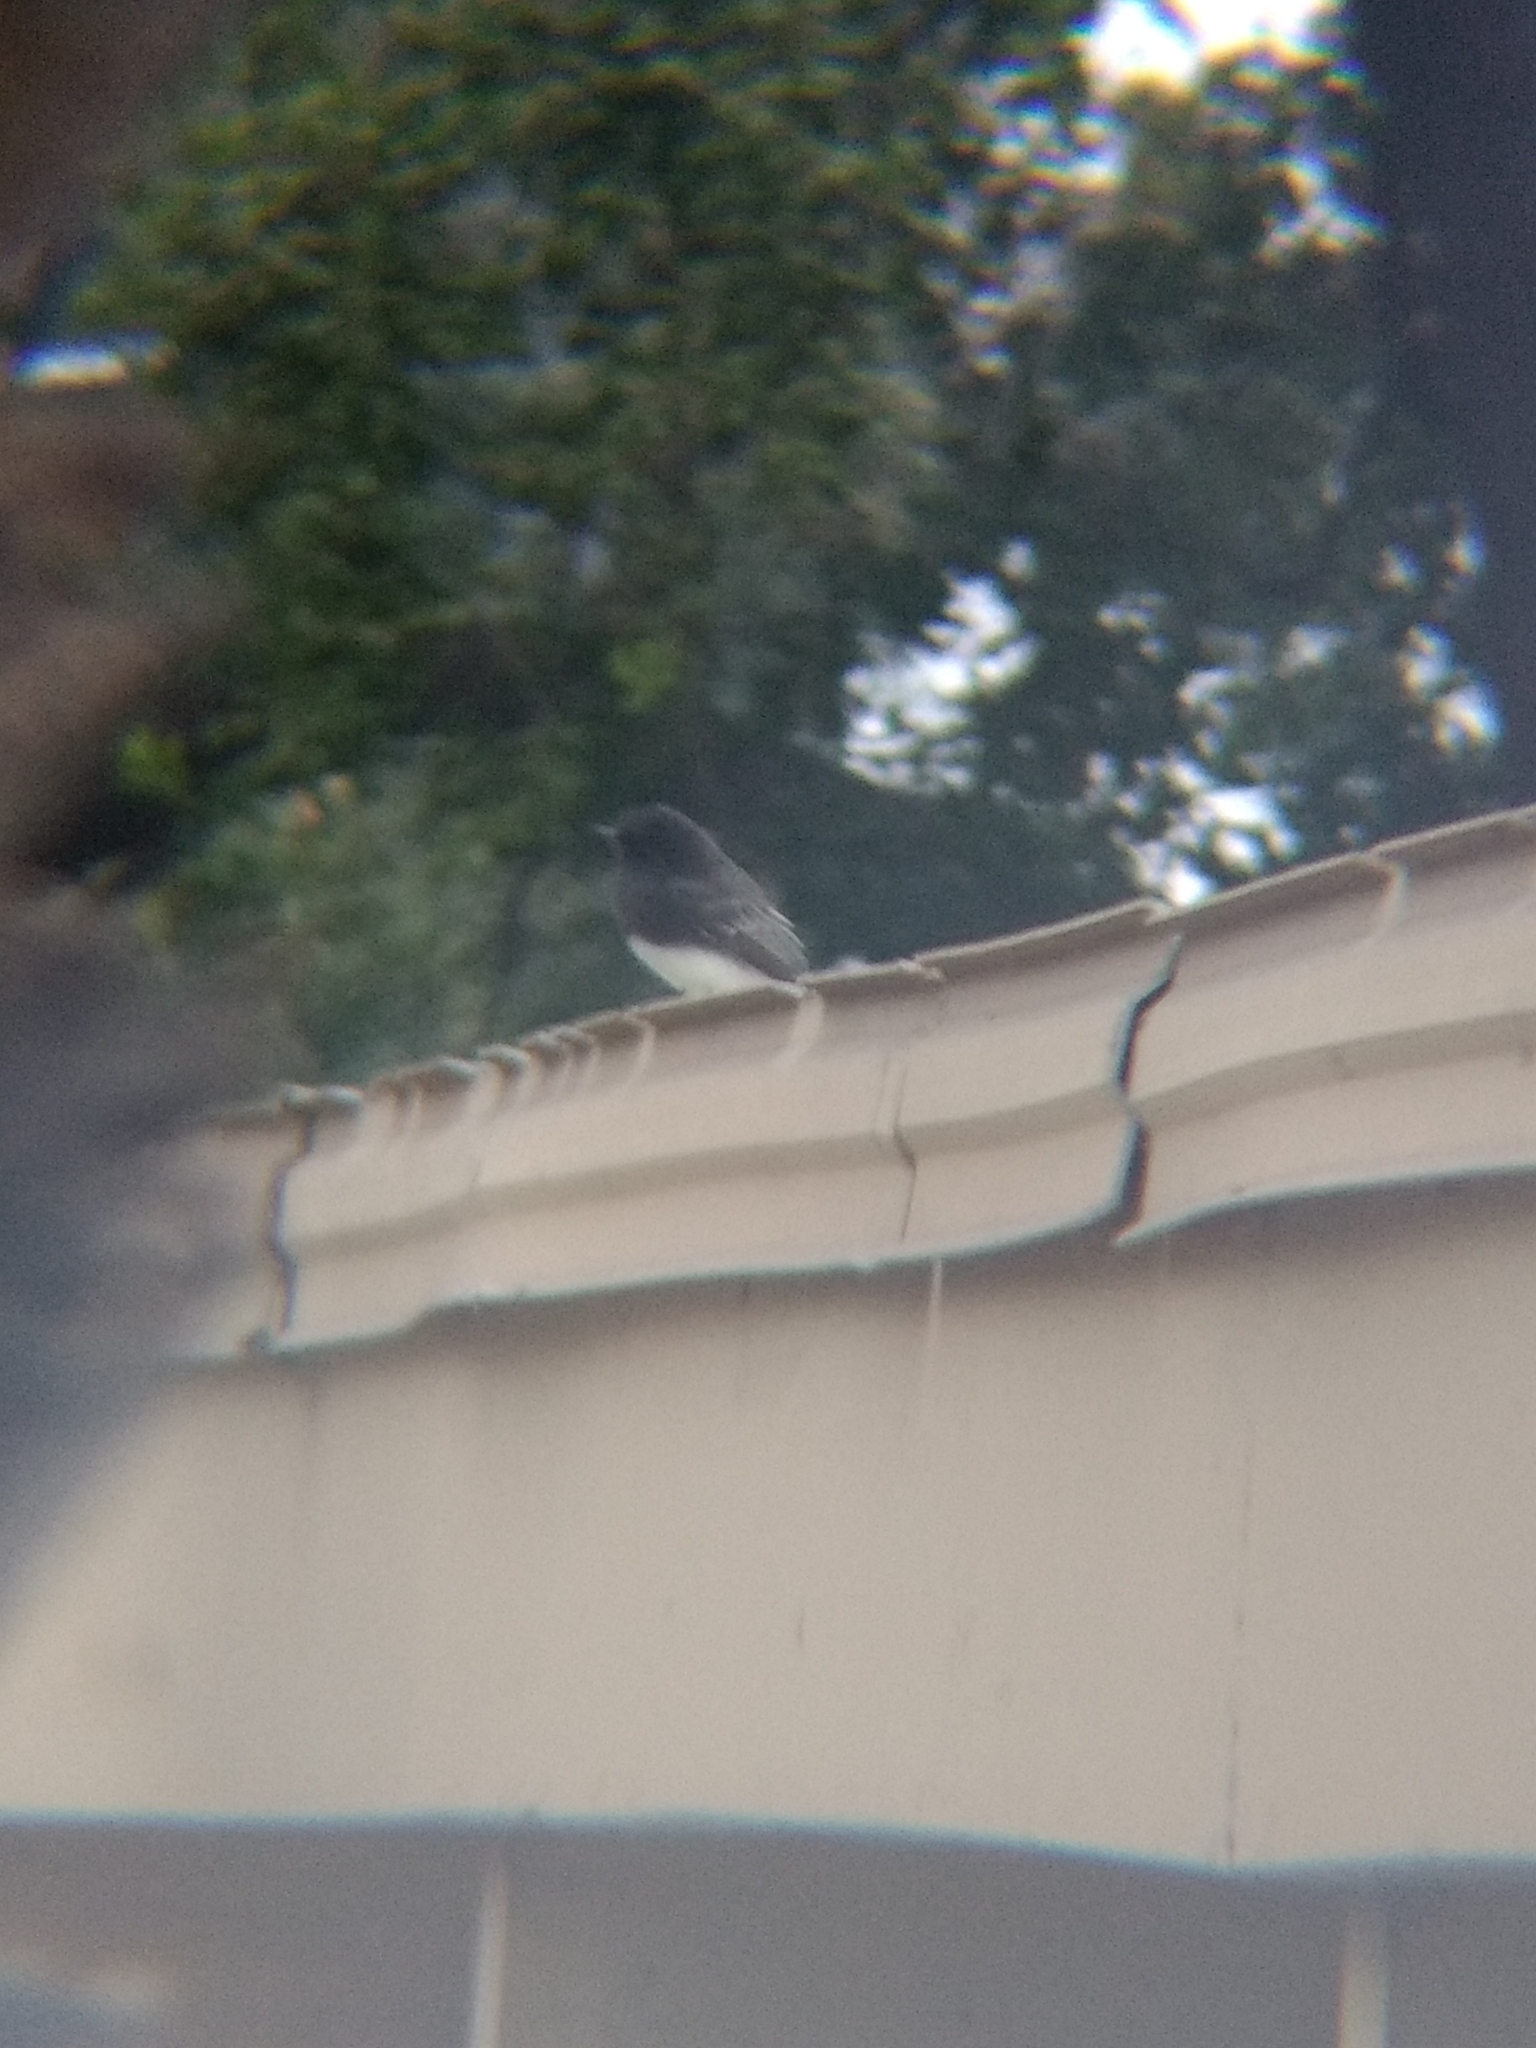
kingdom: Animalia
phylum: Chordata
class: Aves
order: Passeriformes
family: Tyrannidae
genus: Sayornis
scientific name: Sayornis nigricans
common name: Black phoebe
